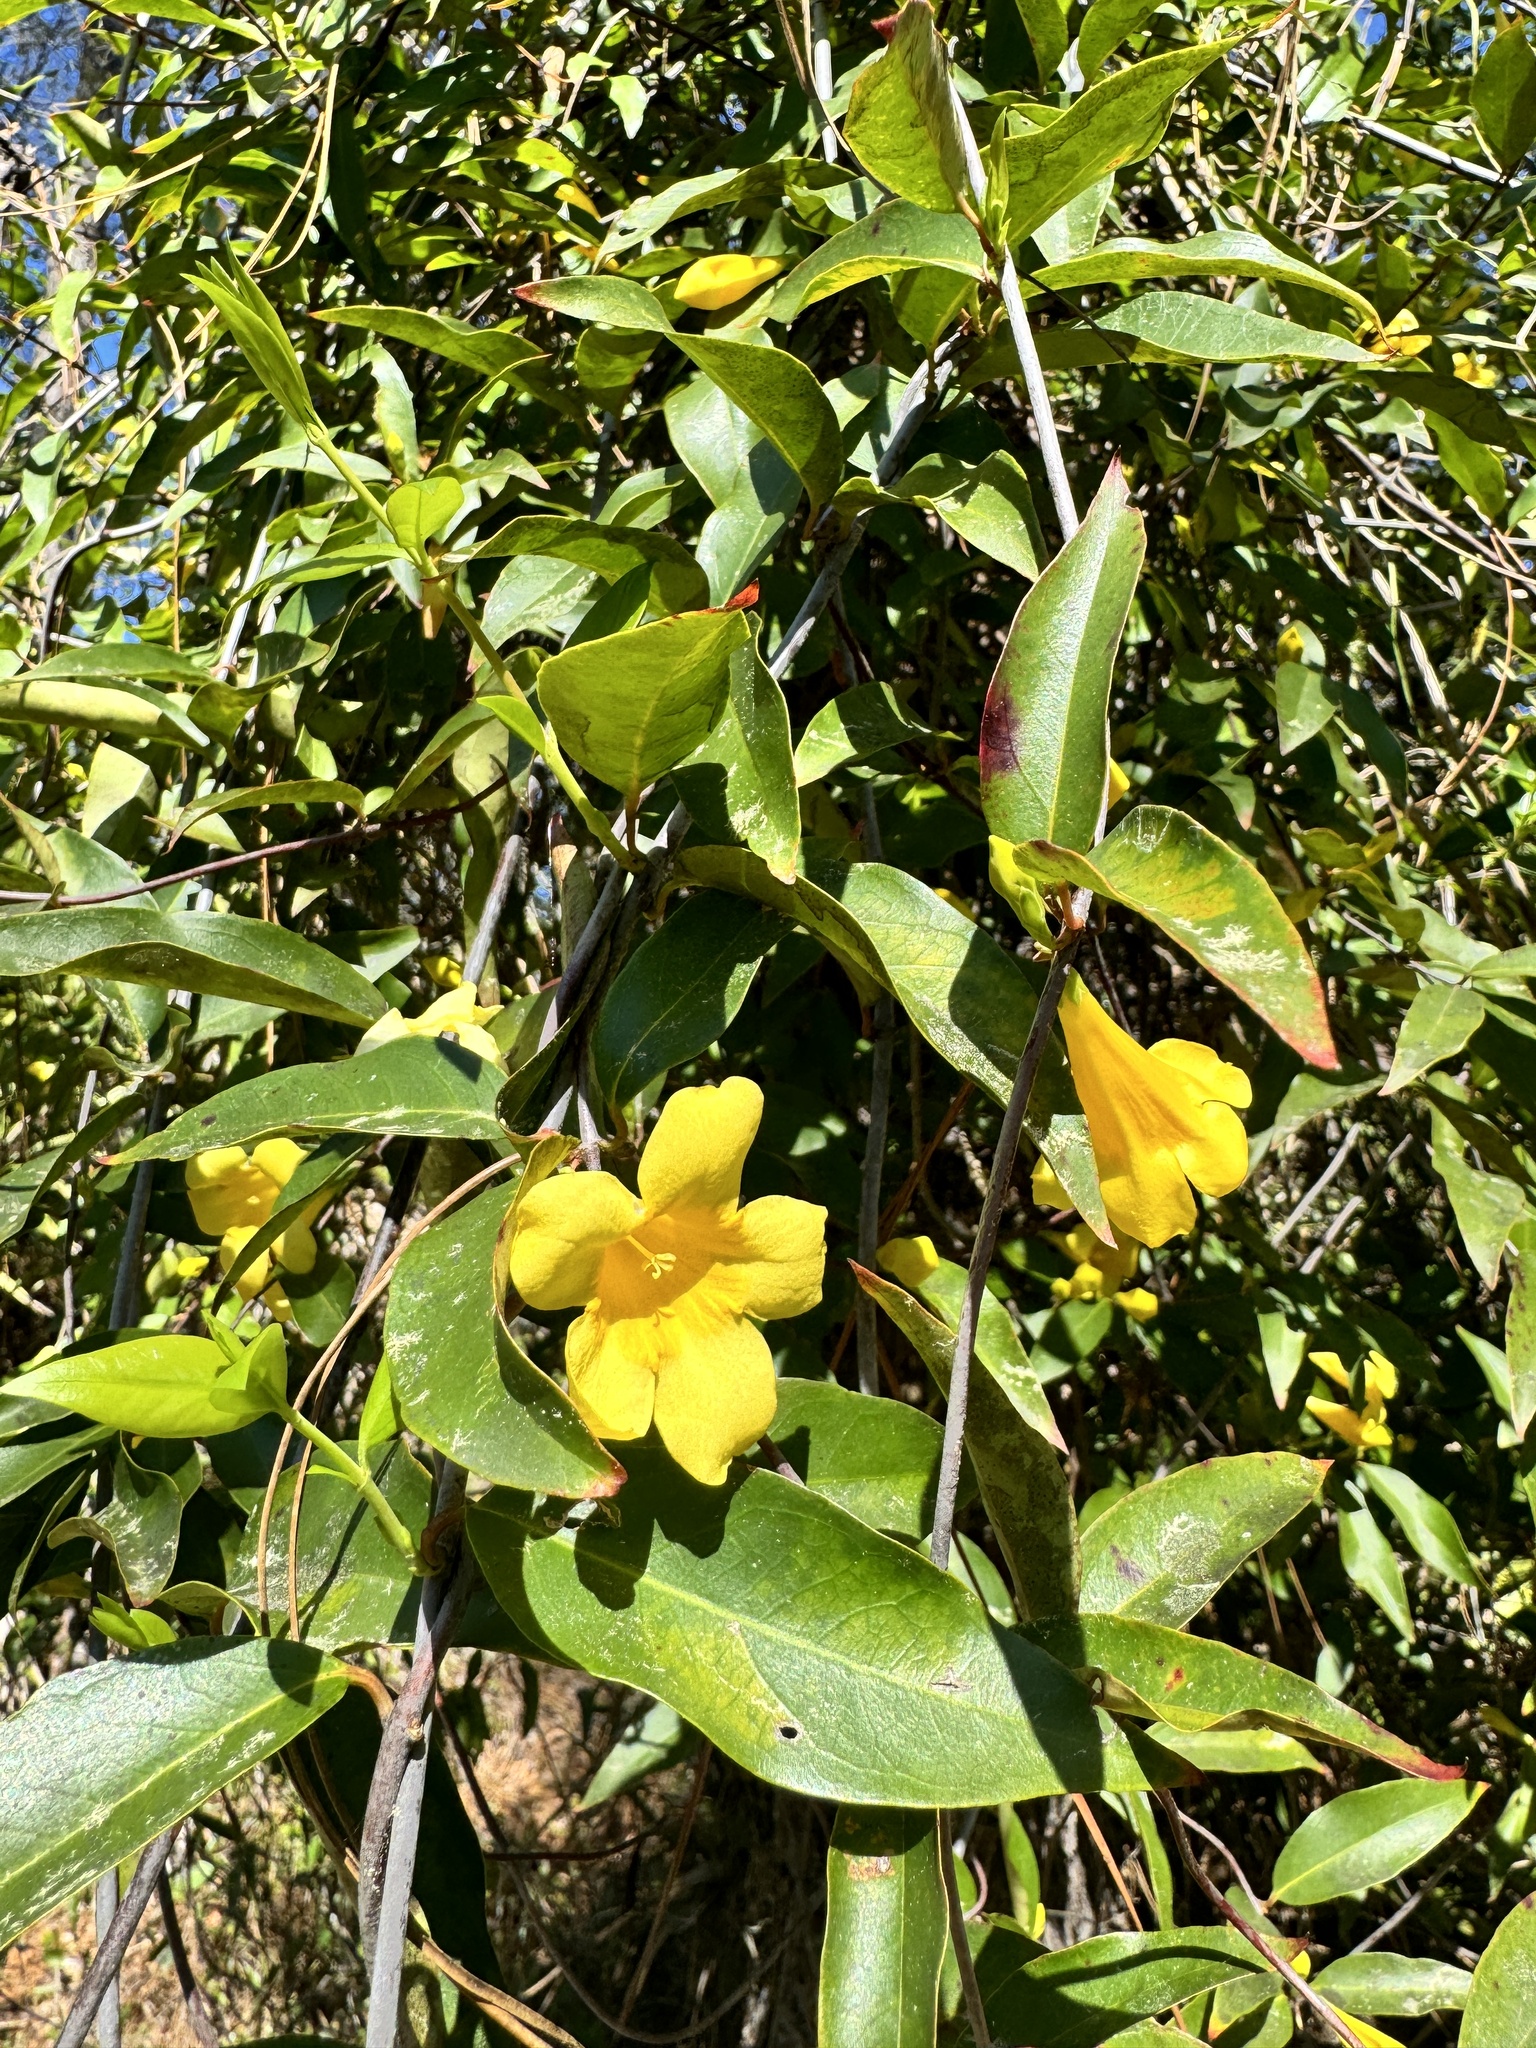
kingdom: Plantae
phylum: Tracheophyta
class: Magnoliopsida
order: Gentianales
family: Gelsemiaceae
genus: Gelsemium
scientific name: Gelsemium sempervirens
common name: Carolina-jasmine
